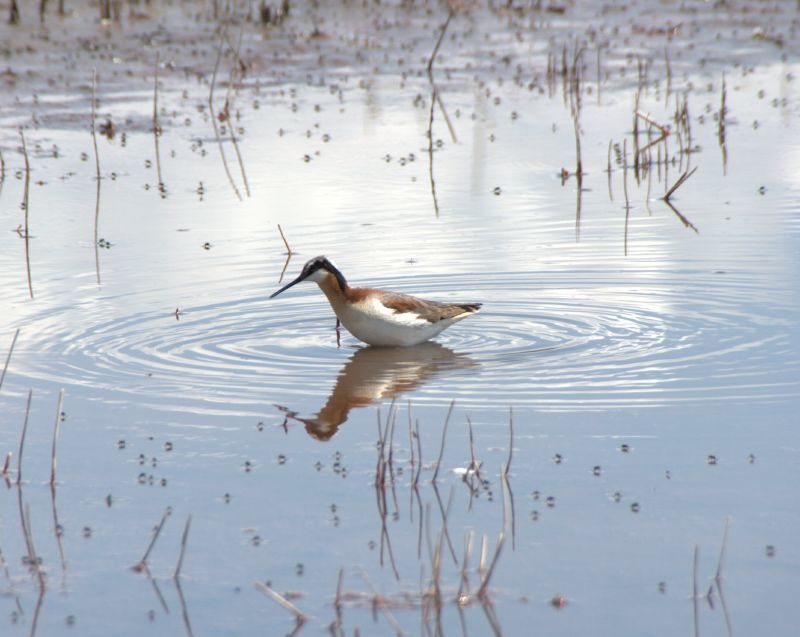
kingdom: Animalia
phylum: Chordata
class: Aves
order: Charadriiformes
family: Scolopacidae
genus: Phalaropus
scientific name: Phalaropus tricolor
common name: Wilson's phalarope
